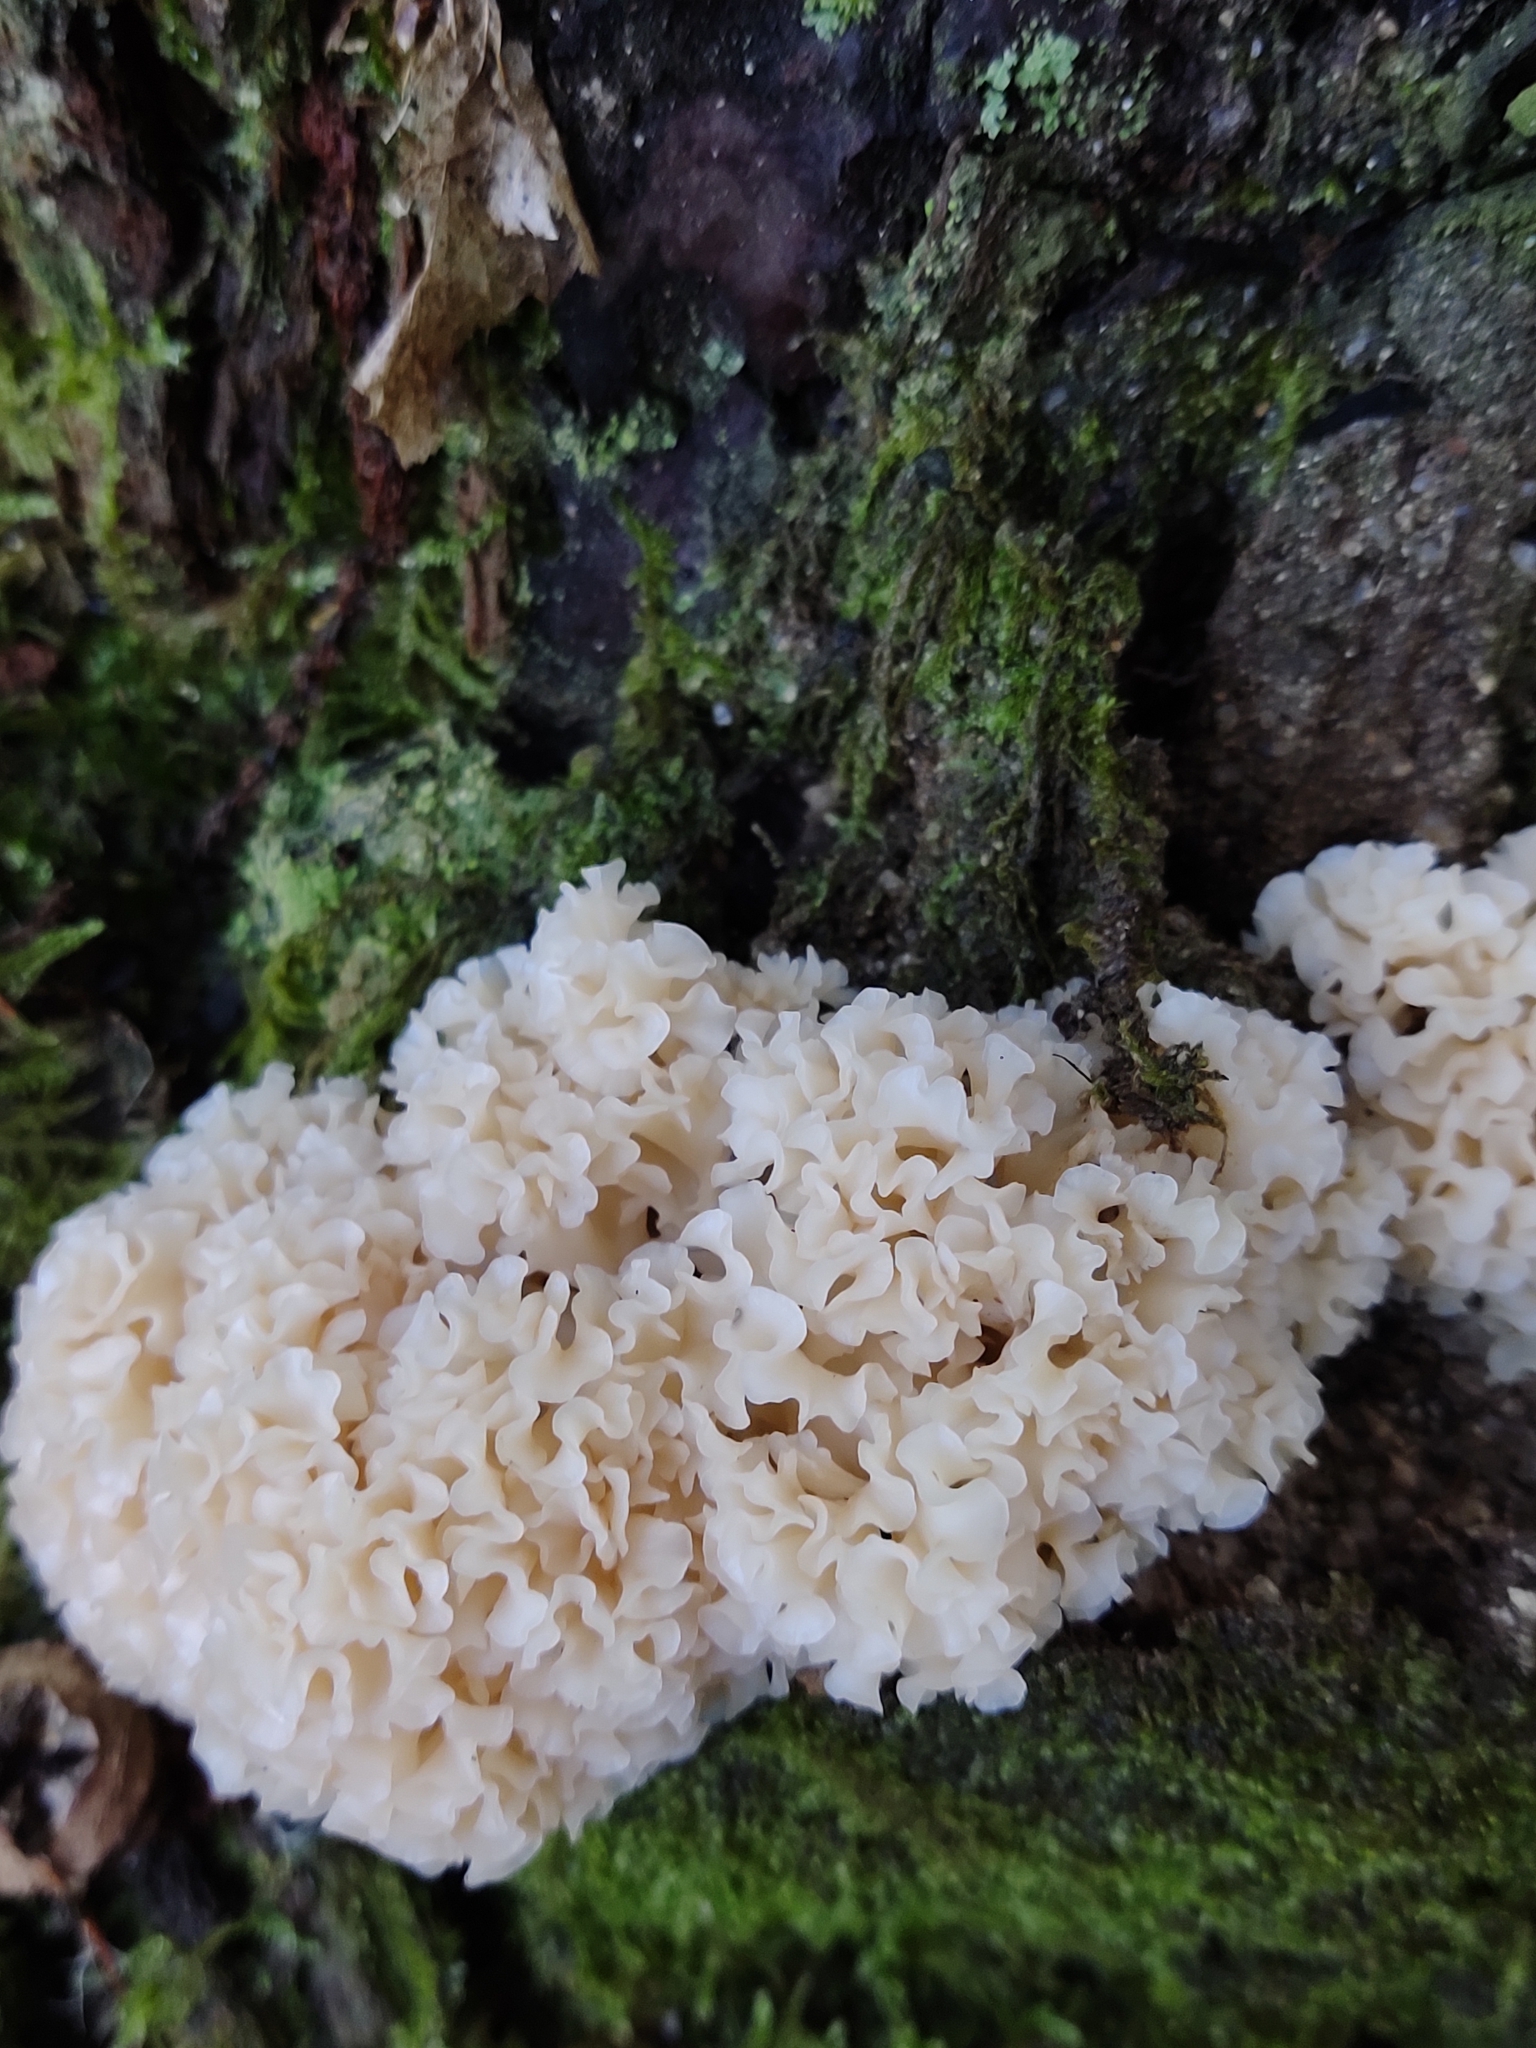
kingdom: Fungi
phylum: Basidiomycota
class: Agaricomycetes
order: Polyporales
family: Sparassidaceae
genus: Sparassis
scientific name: Sparassis crispa
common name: Brain fungus
